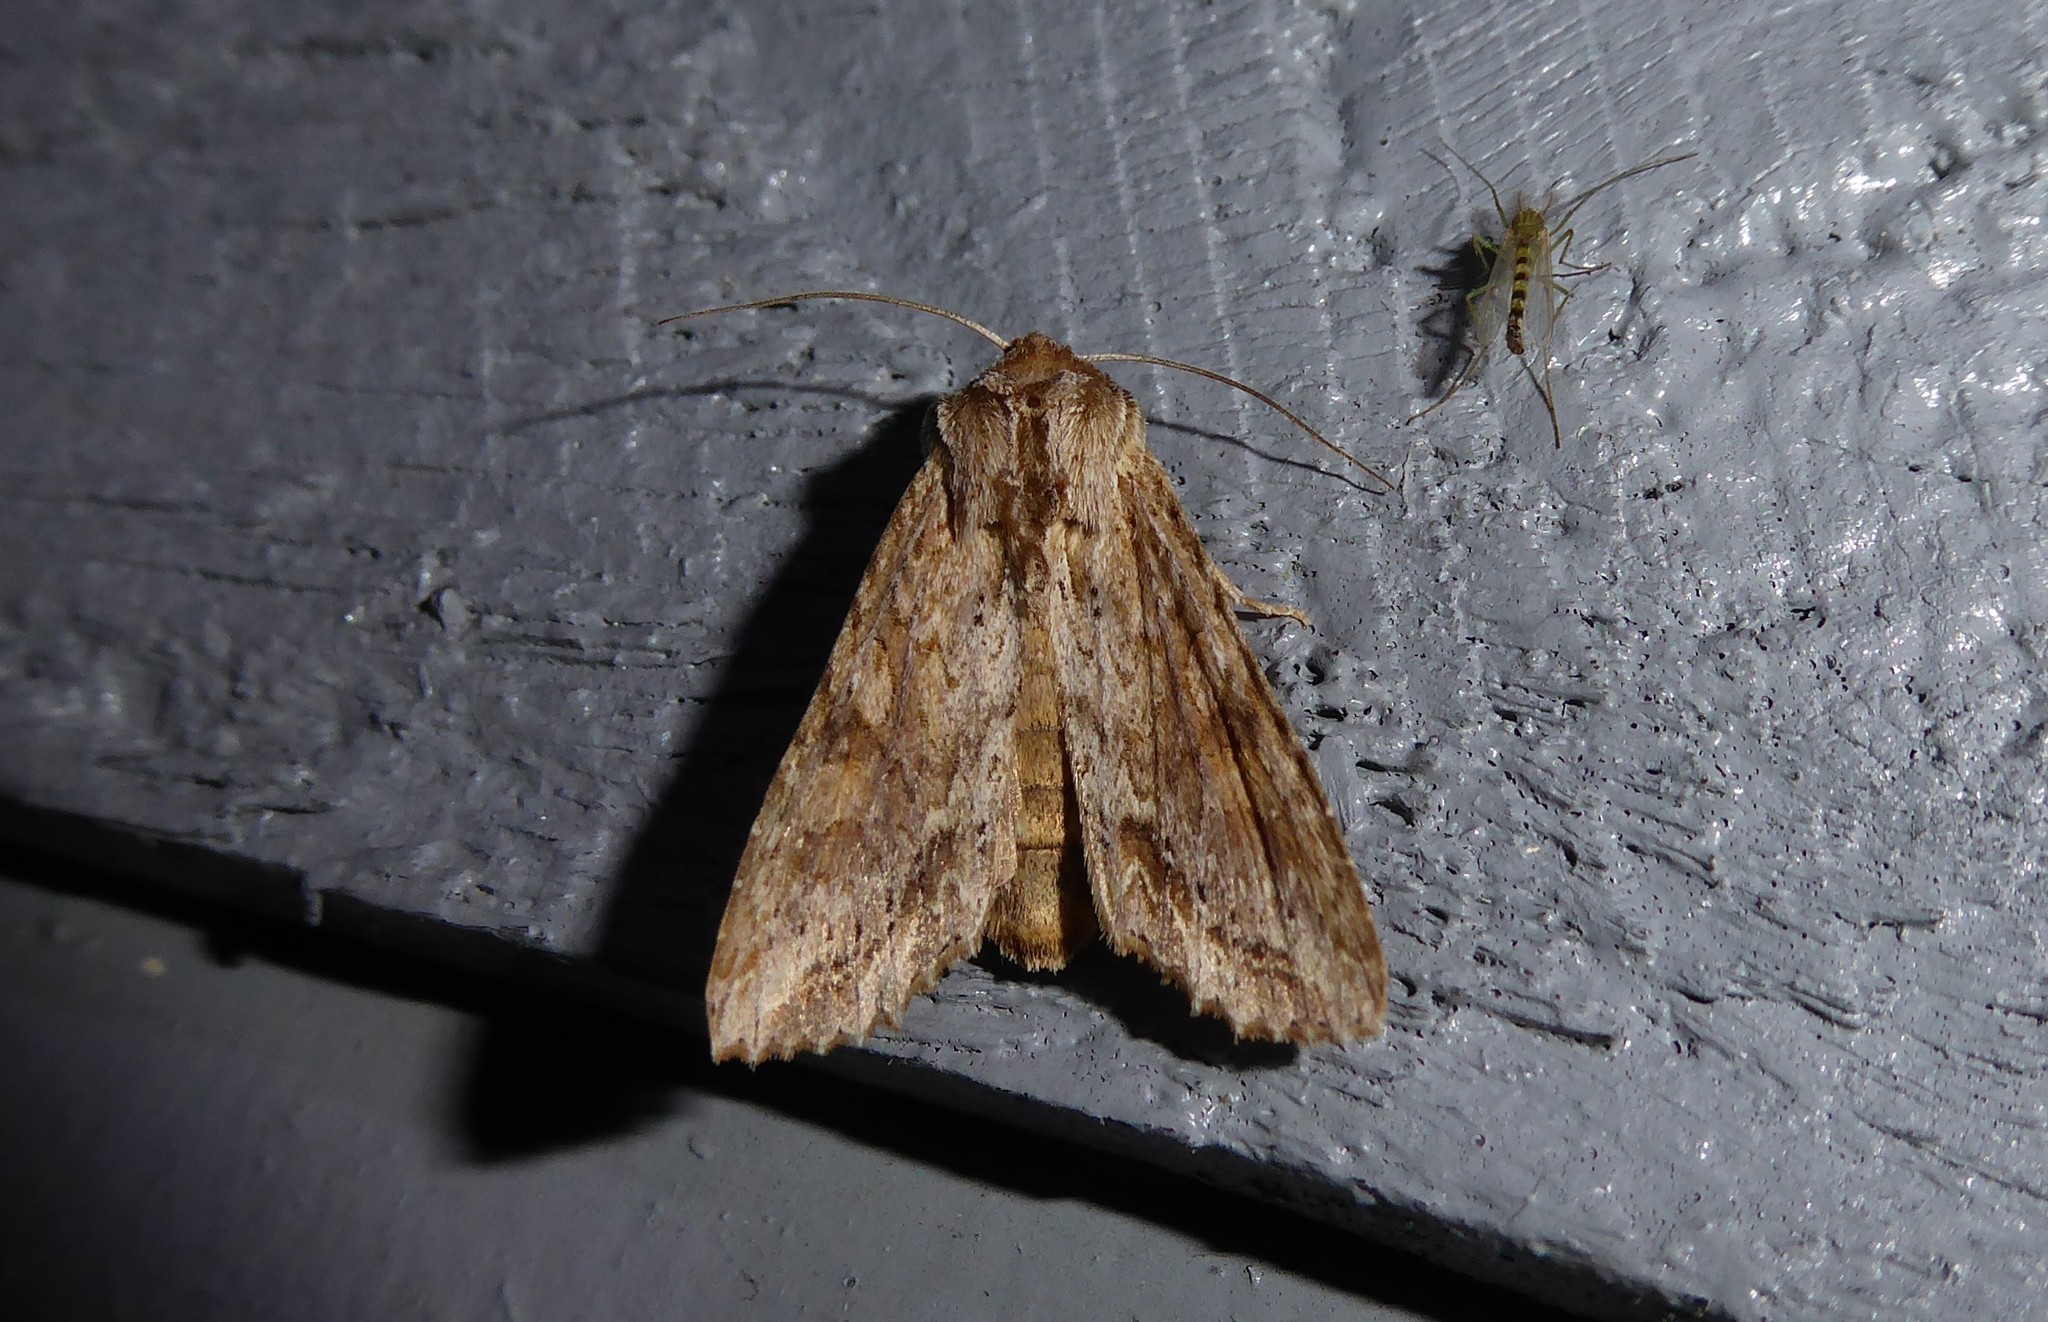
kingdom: Animalia
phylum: Arthropoda
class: Insecta
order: Lepidoptera
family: Noctuidae
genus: Ichneutica
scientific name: Ichneutica mollis
